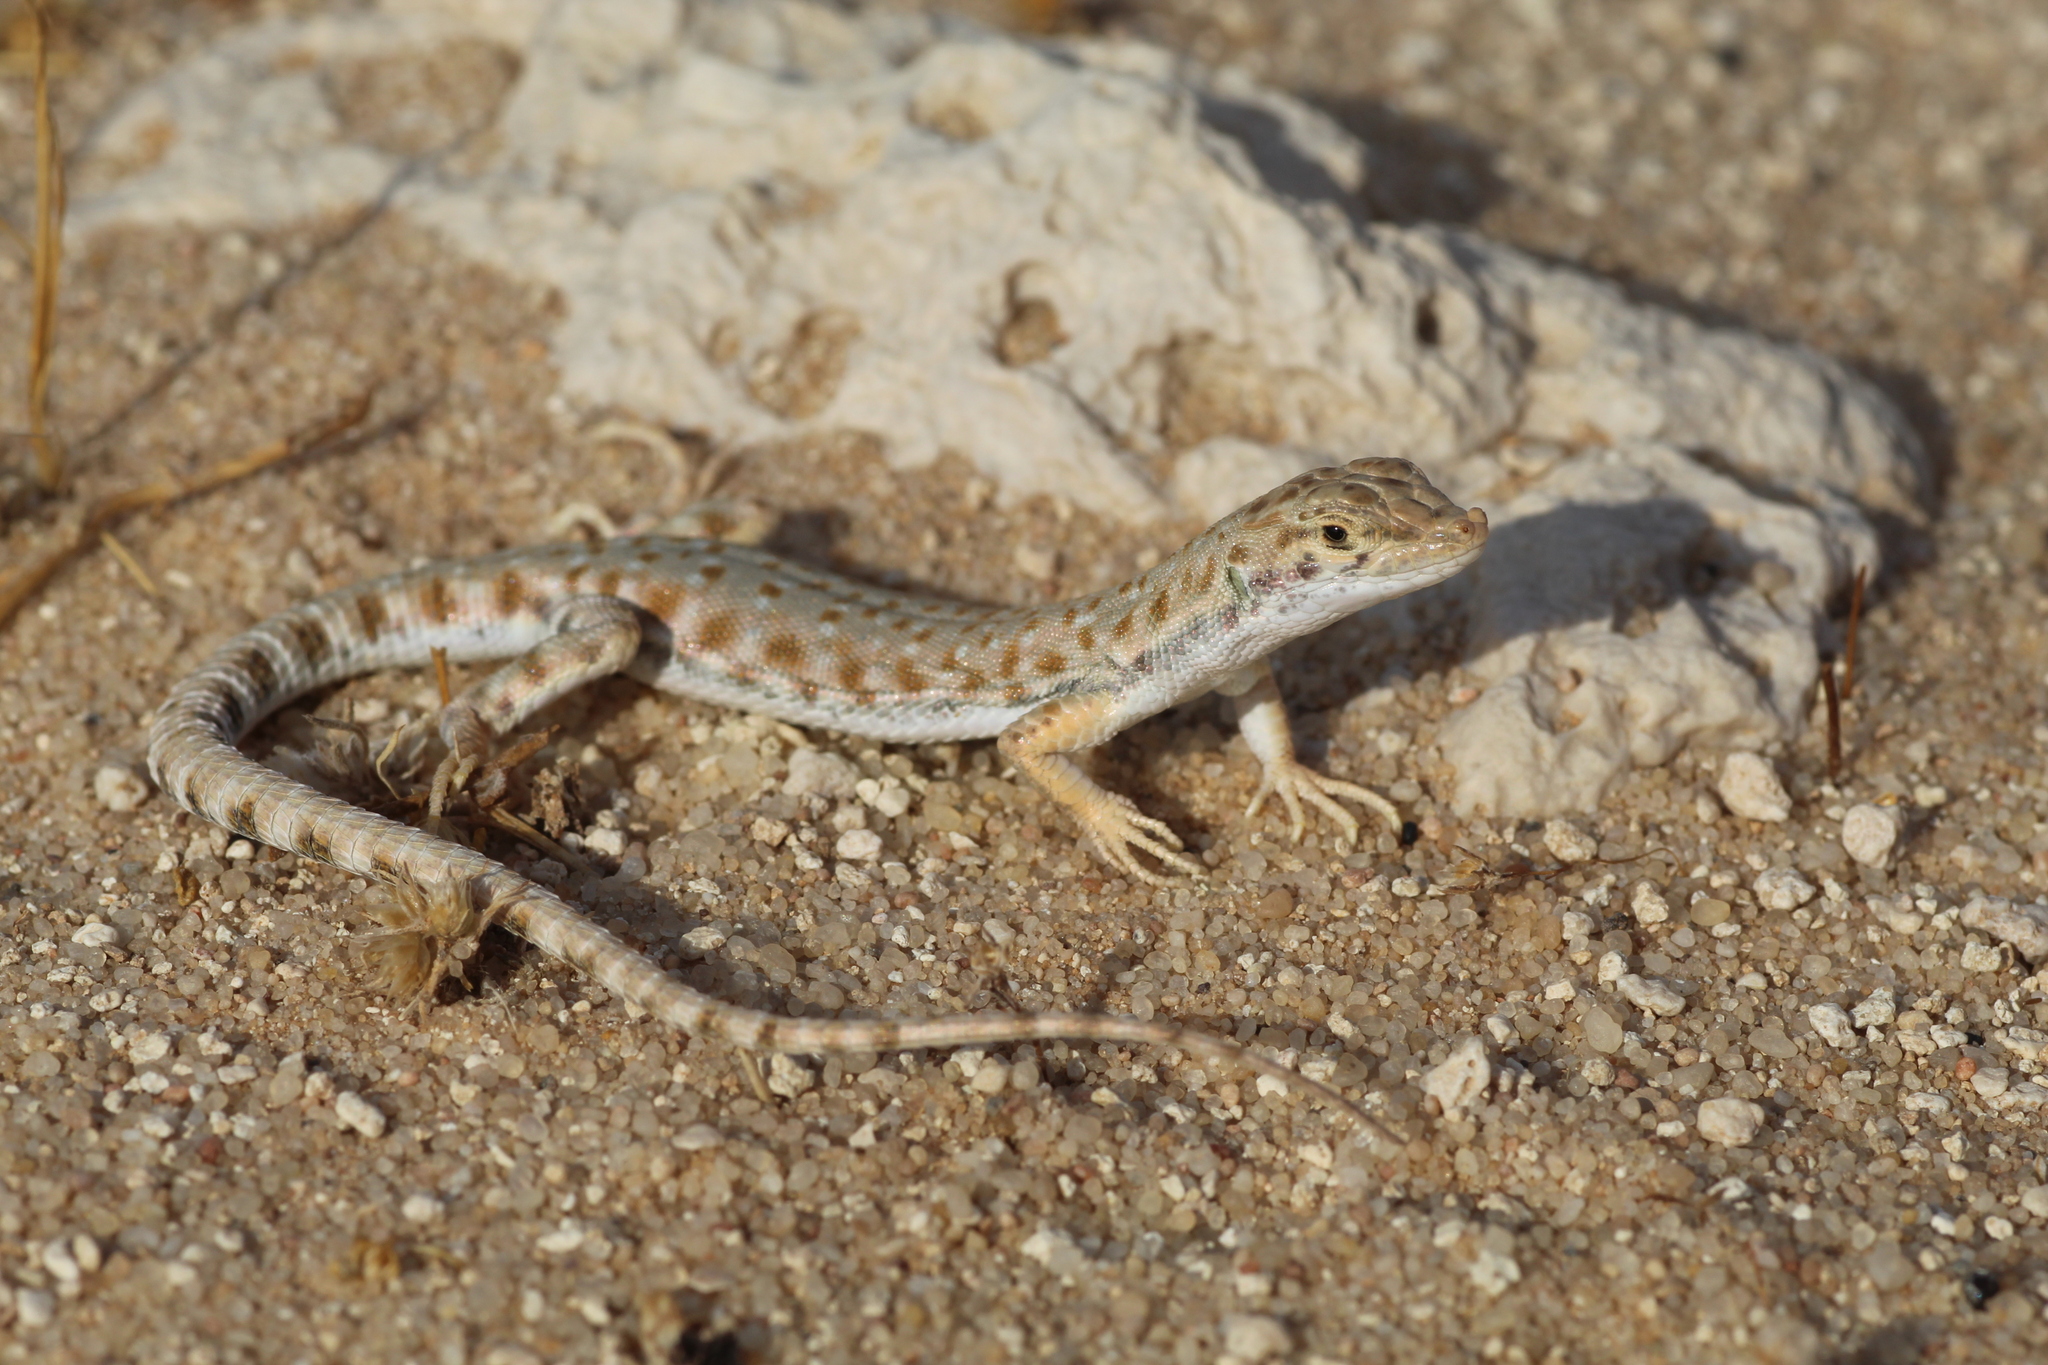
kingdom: Animalia
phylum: Chordata
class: Squamata
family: Lacertidae
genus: Mesalina
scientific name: Mesalina brevirostris
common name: Blanford's short-nosed desert lizard
